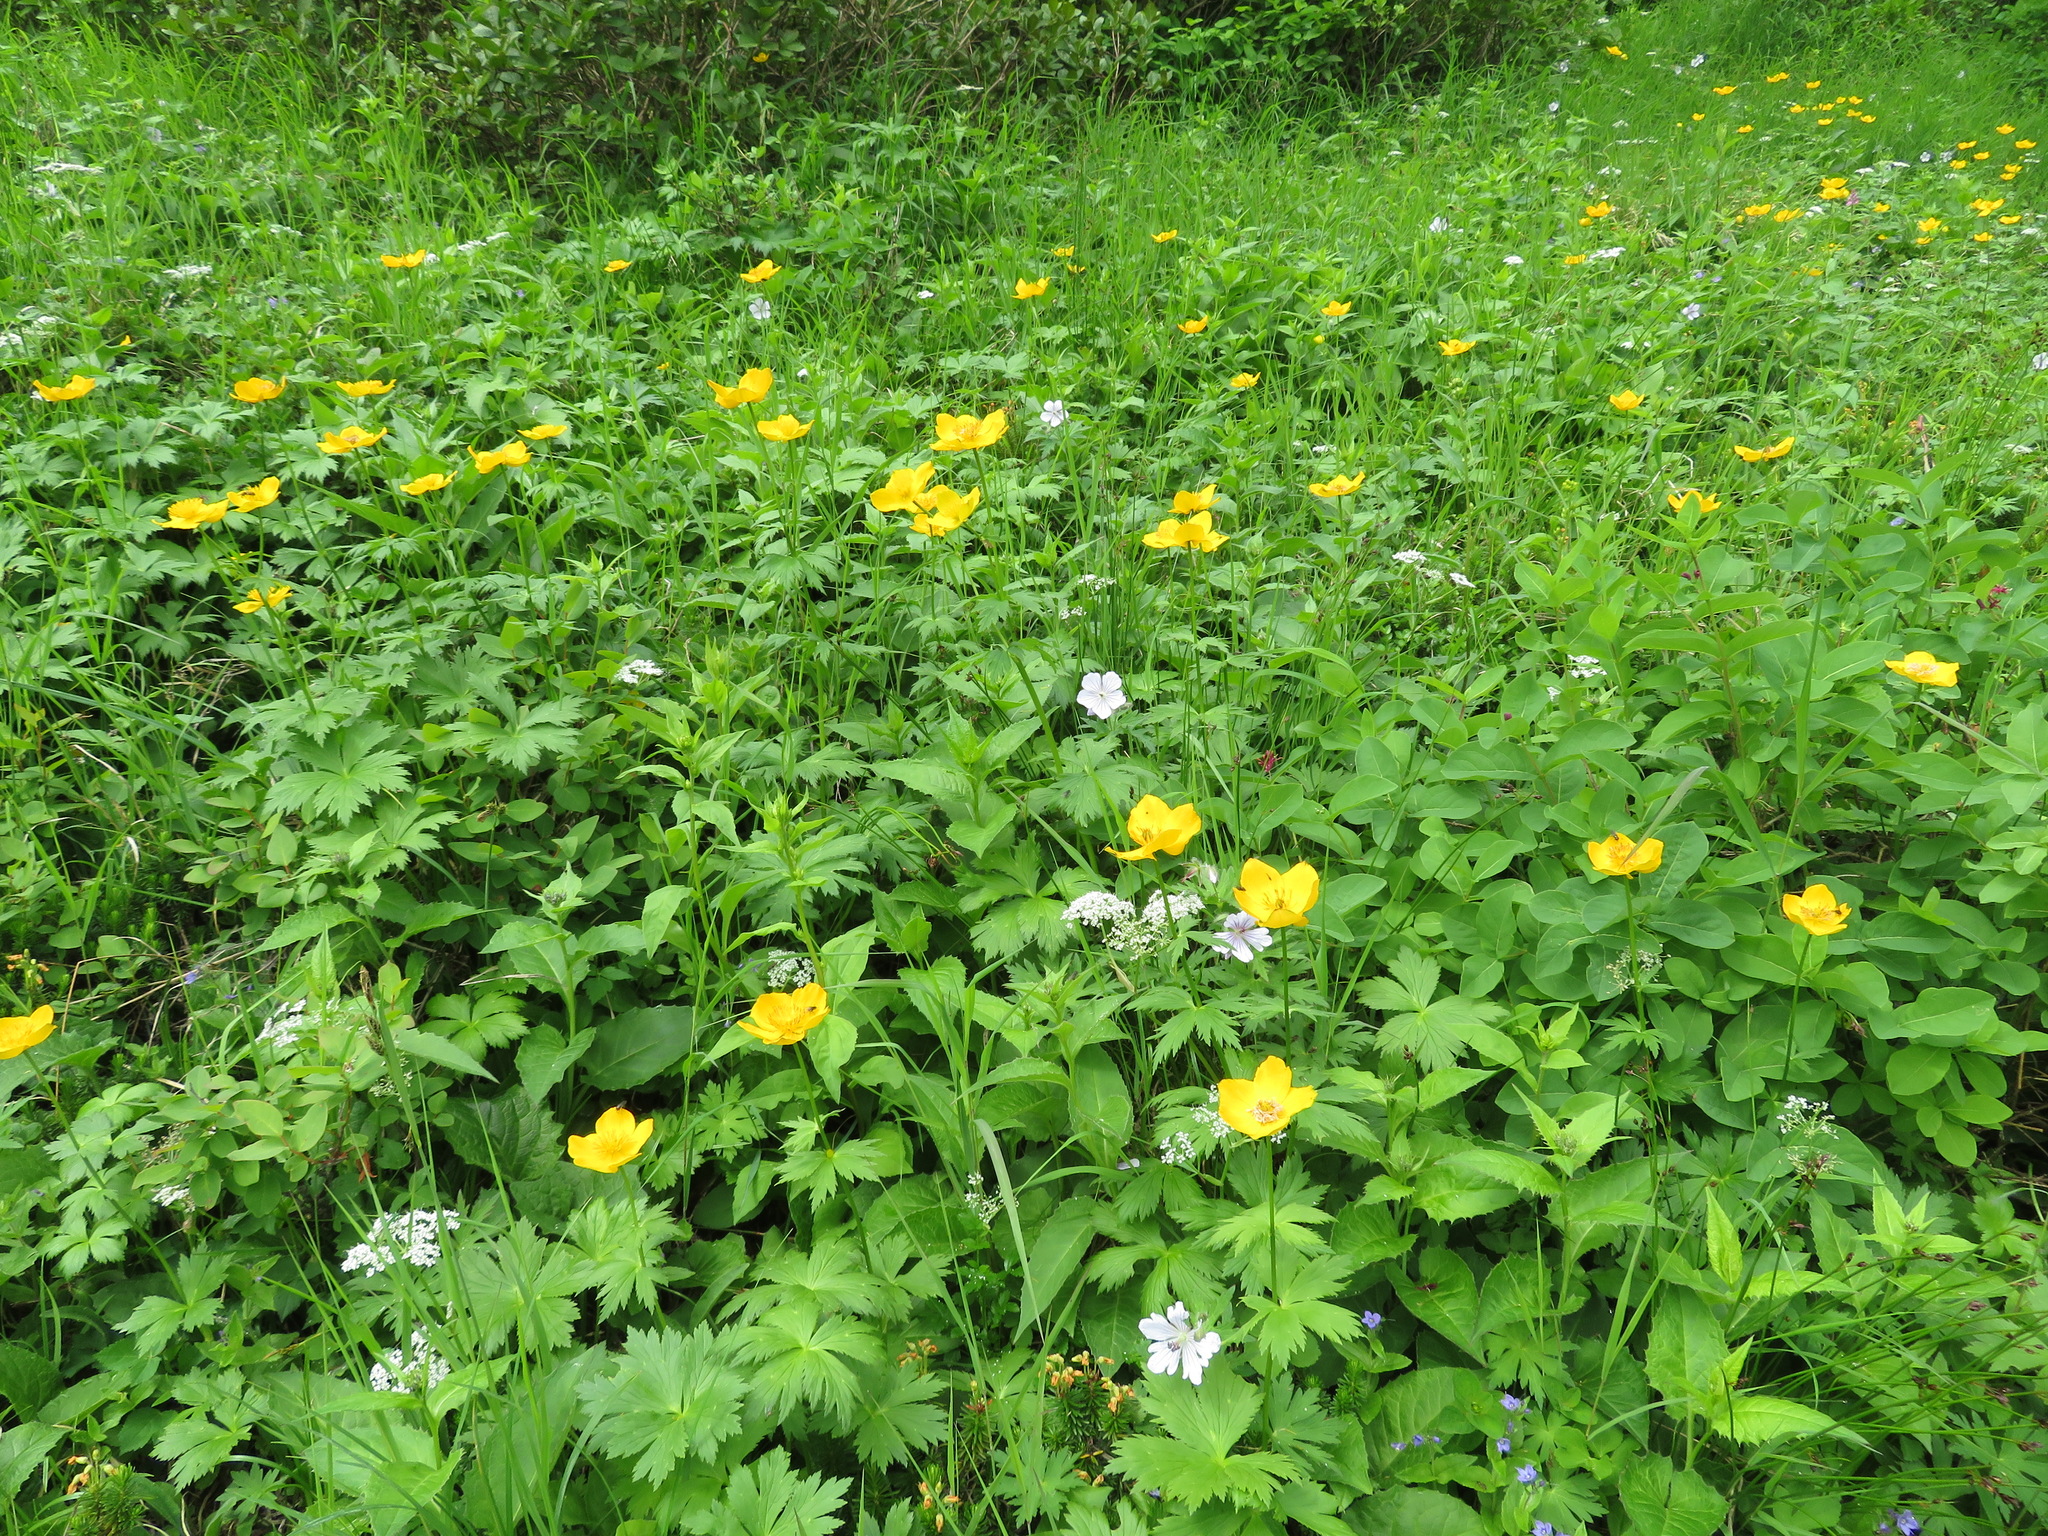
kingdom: Plantae
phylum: Tracheophyta
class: Magnoliopsida
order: Ranunculales
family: Ranunculaceae
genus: Trollius
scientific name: Trollius riederianus
